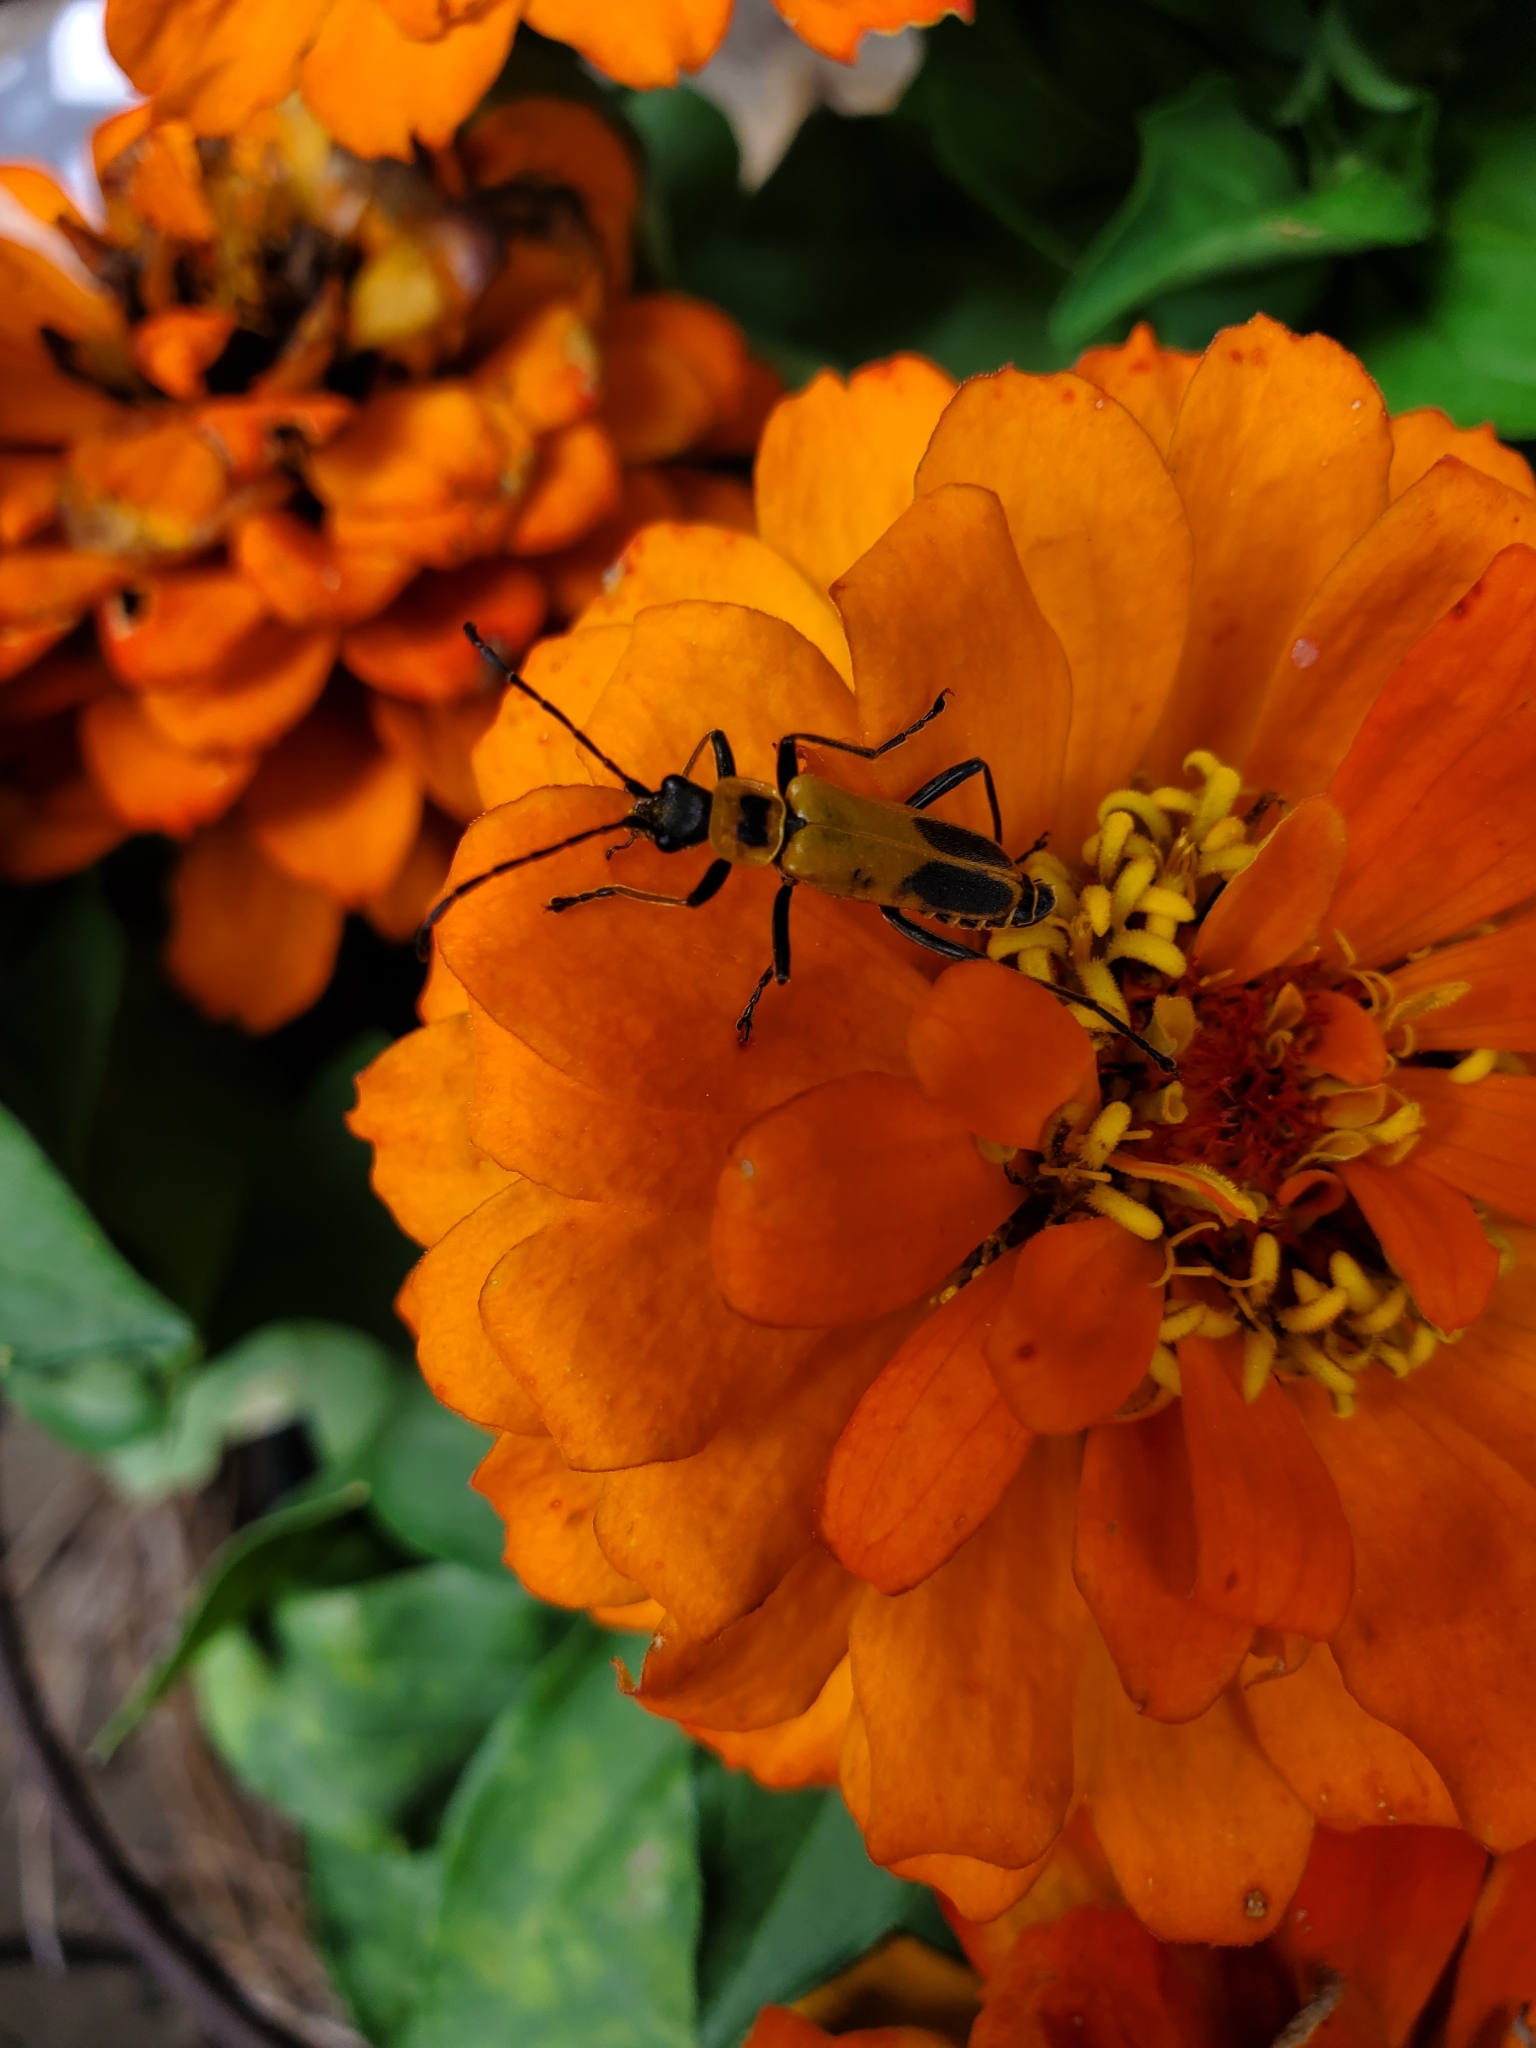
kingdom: Animalia
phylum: Arthropoda
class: Insecta
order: Coleoptera
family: Cantharidae
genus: Chauliognathus
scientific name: Chauliognathus pensylvanicus
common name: Goldenrod soldier beetle
